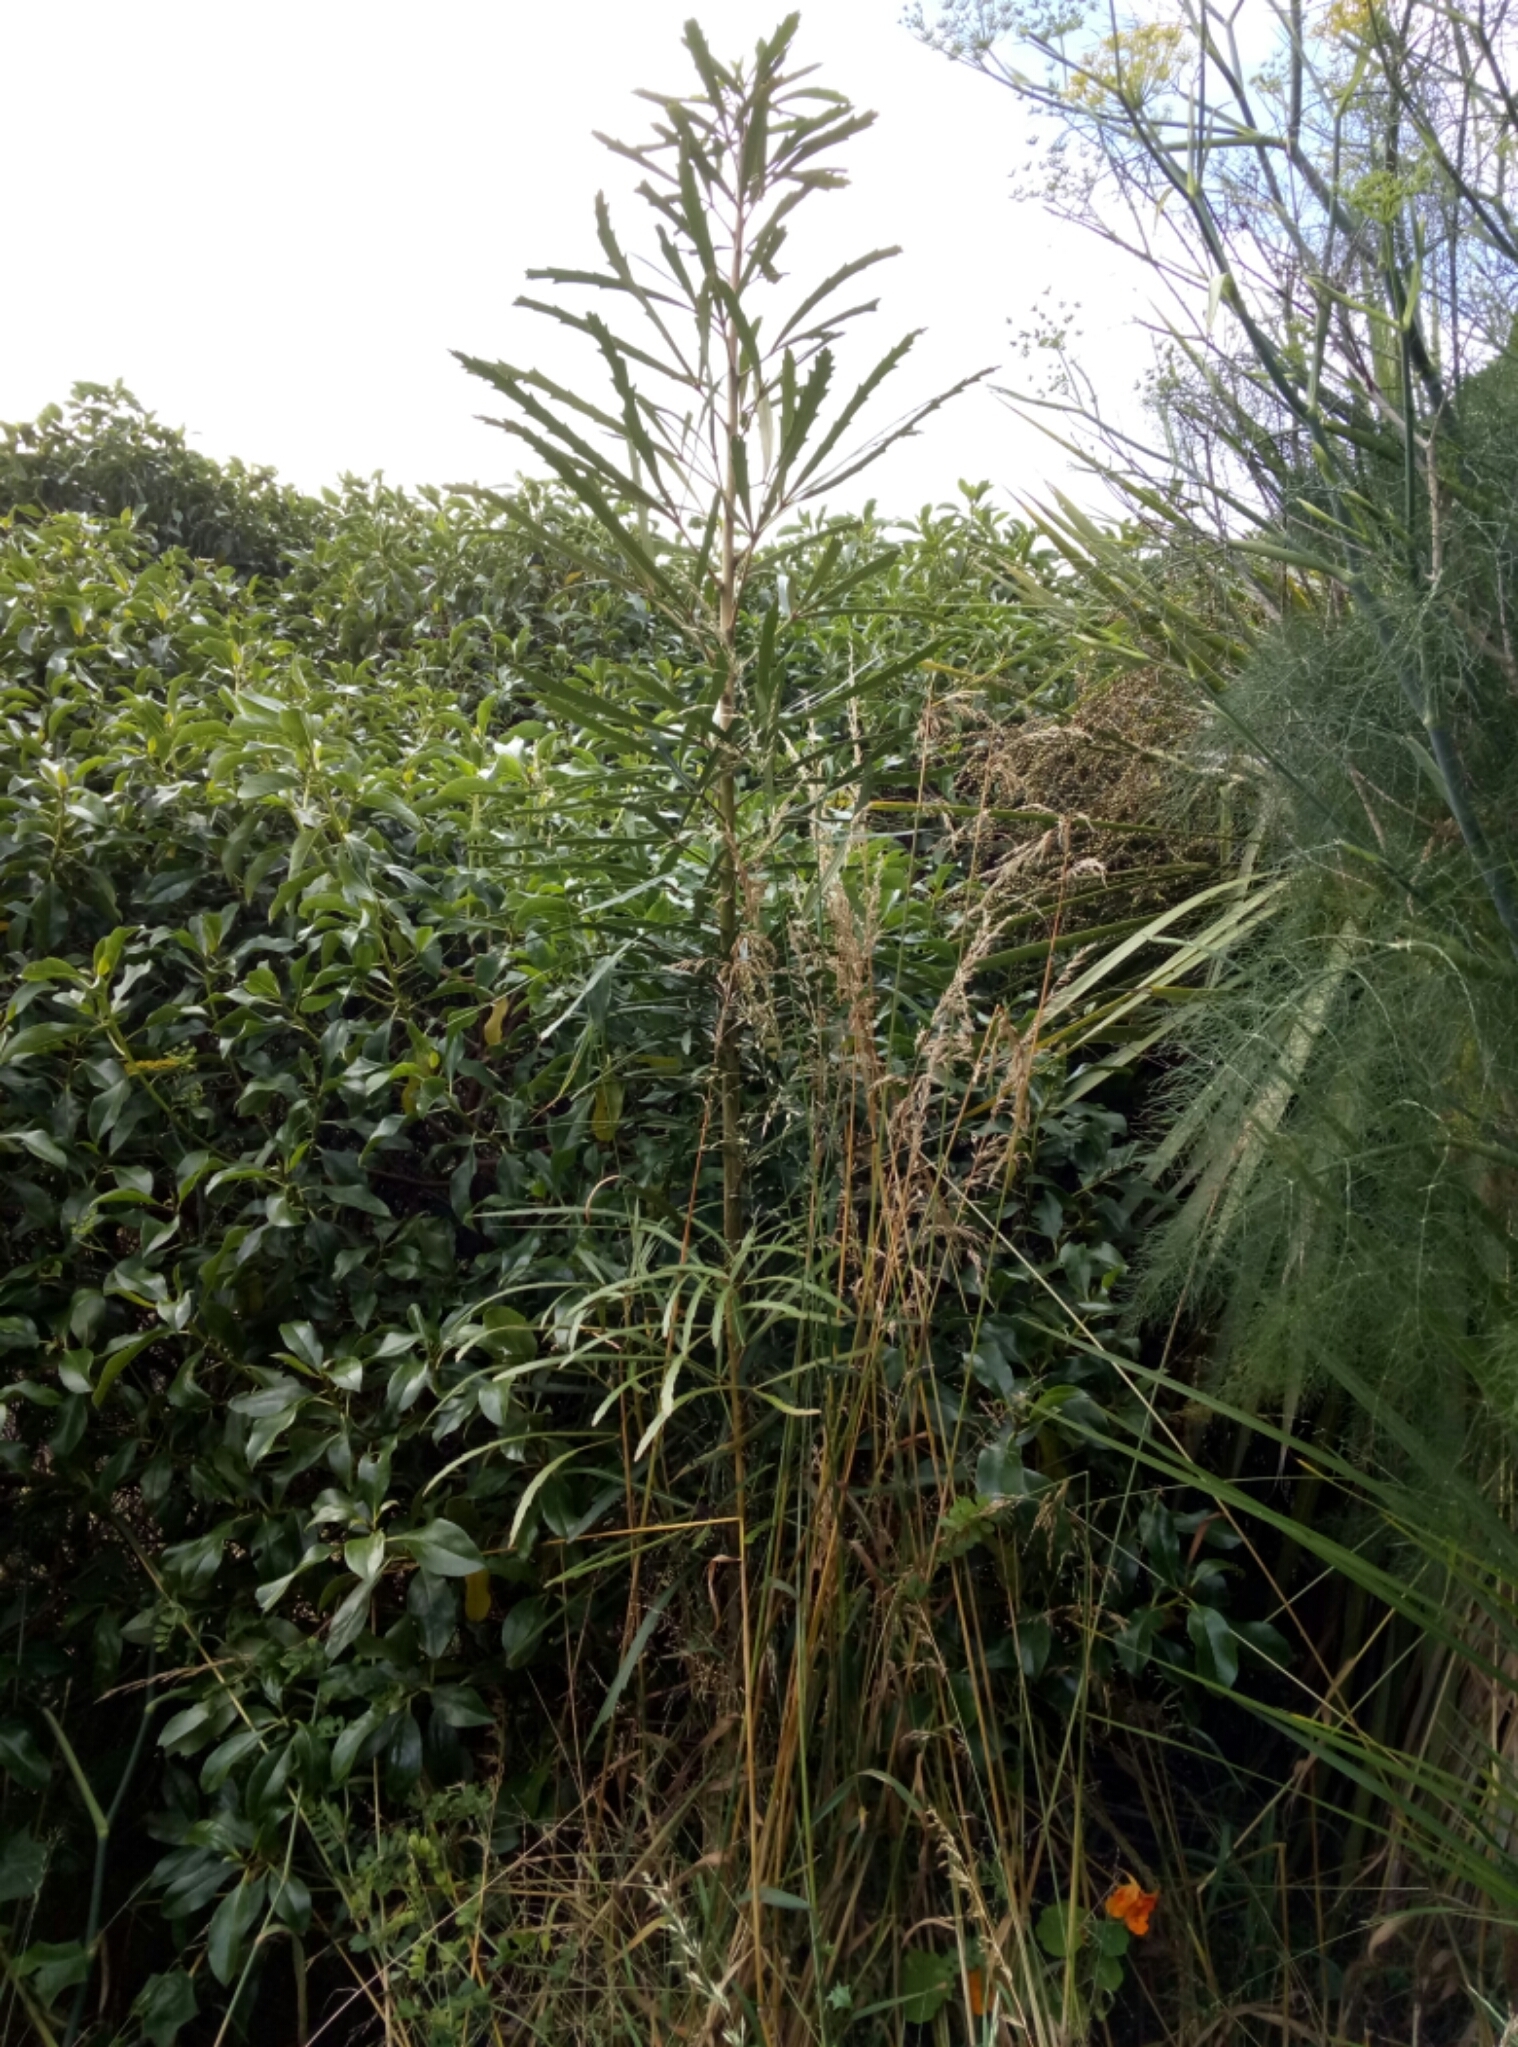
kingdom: Plantae
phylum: Tracheophyta
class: Magnoliopsida
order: Apiales
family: Araliaceae
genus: Pseudopanax
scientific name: Pseudopanax crassifolius
